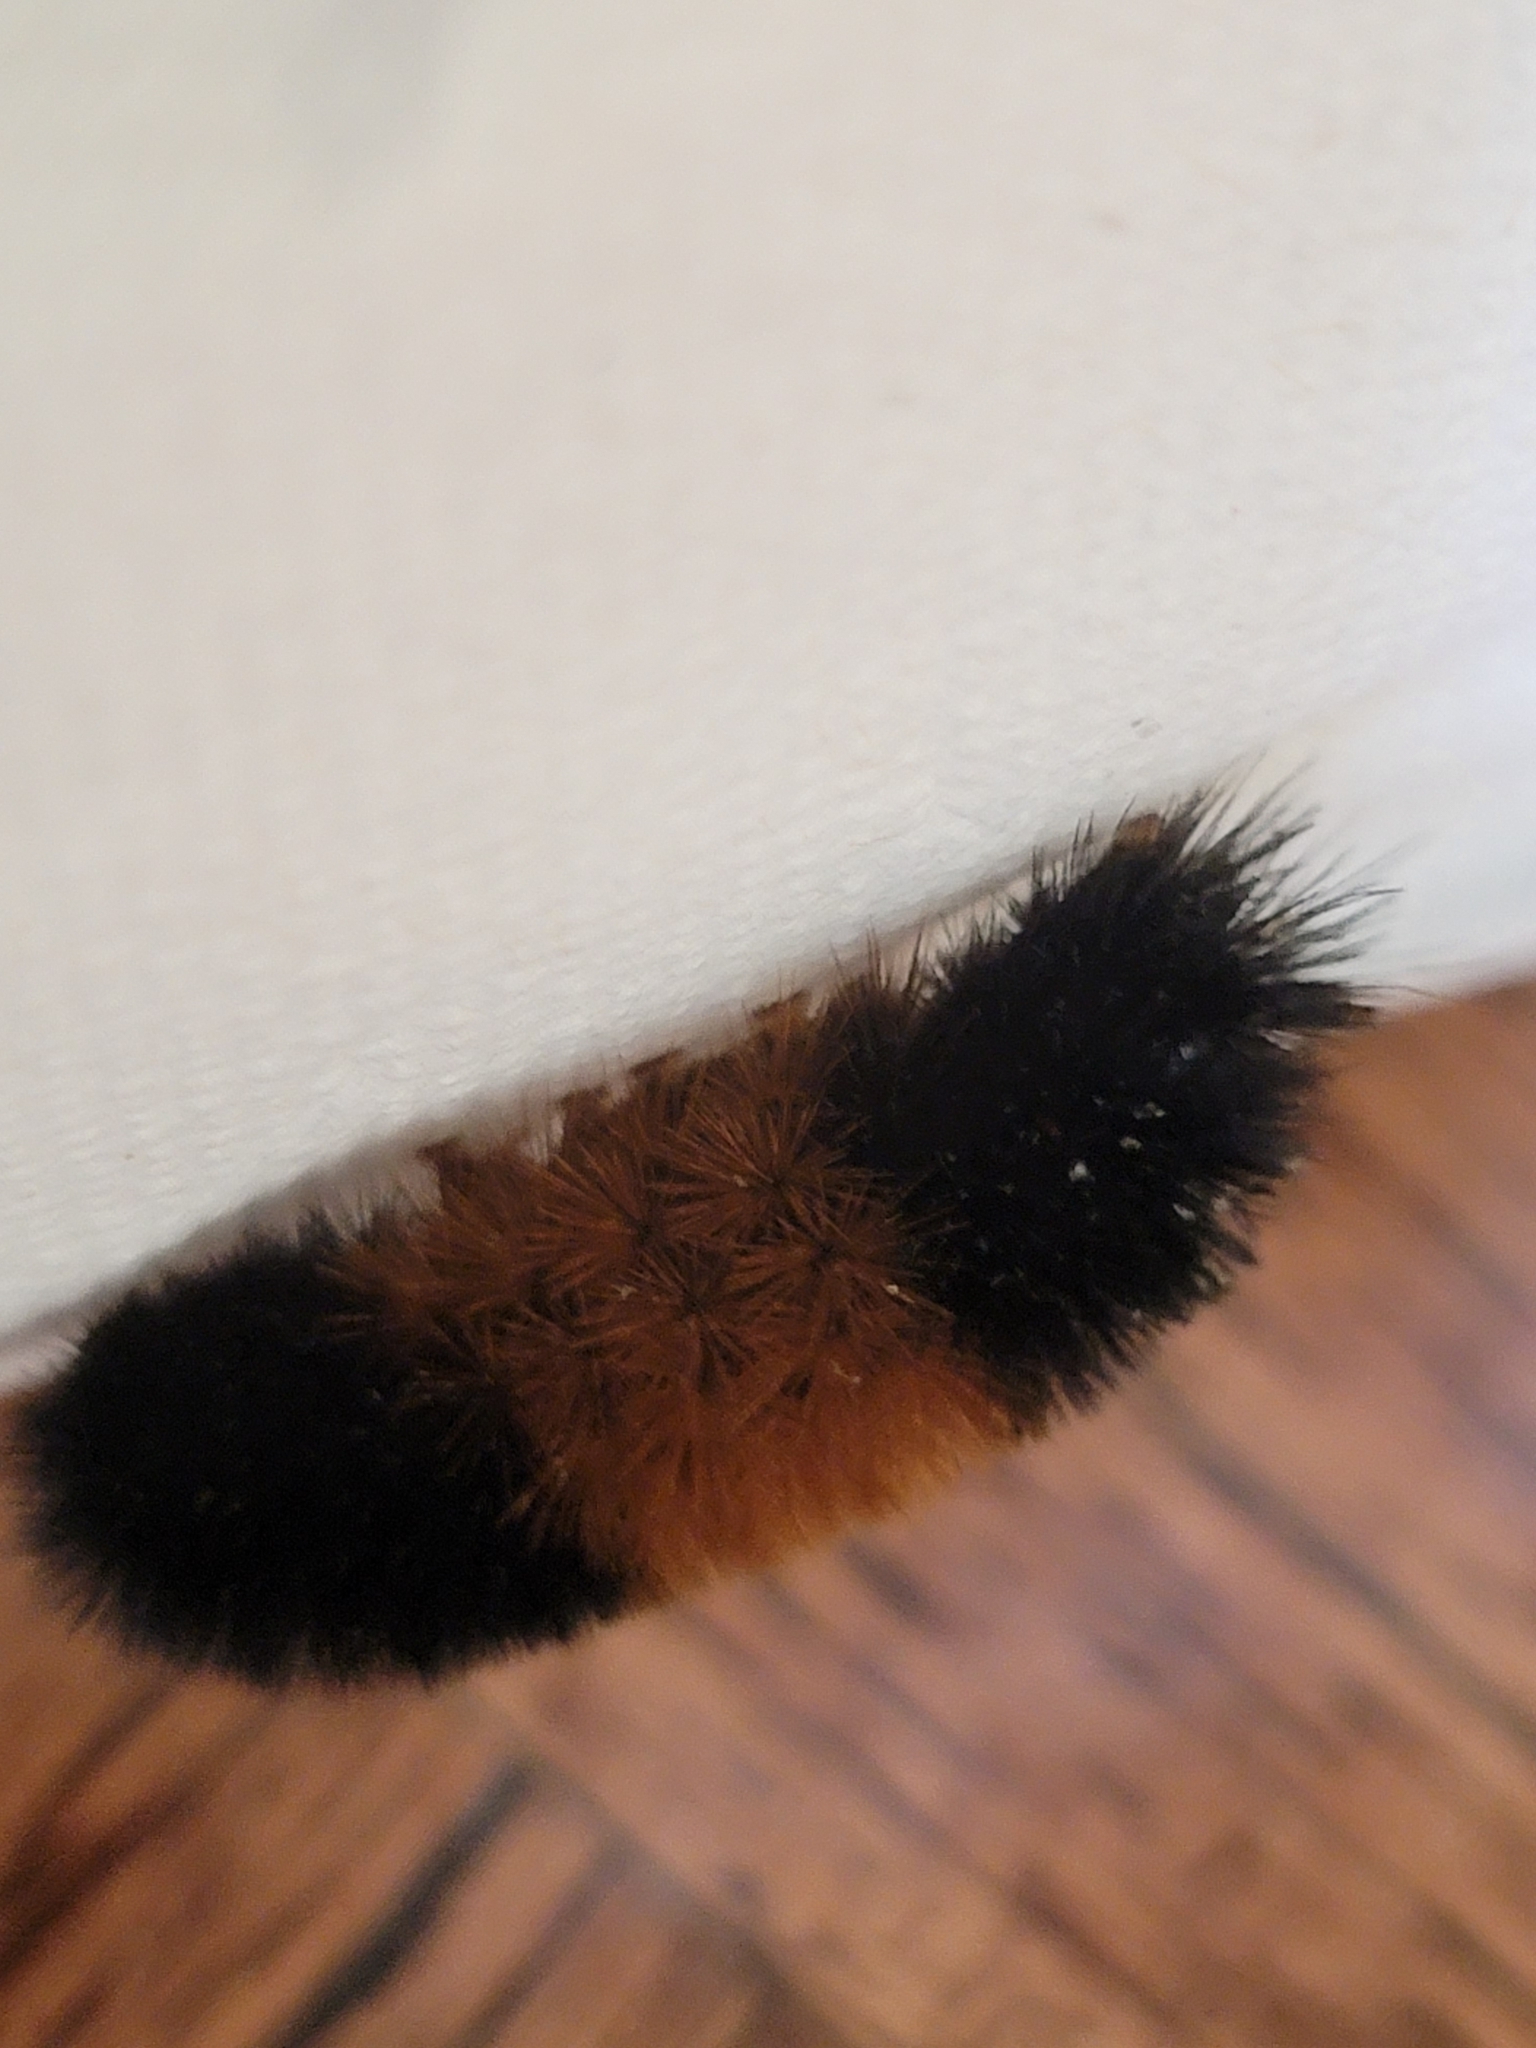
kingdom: Animalia
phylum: Arthropoda
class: Insecta
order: Lepidoptera
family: Erebidae
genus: Pyrrharctia
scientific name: Pyrrharctia isabella
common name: Isabella tiger moth
